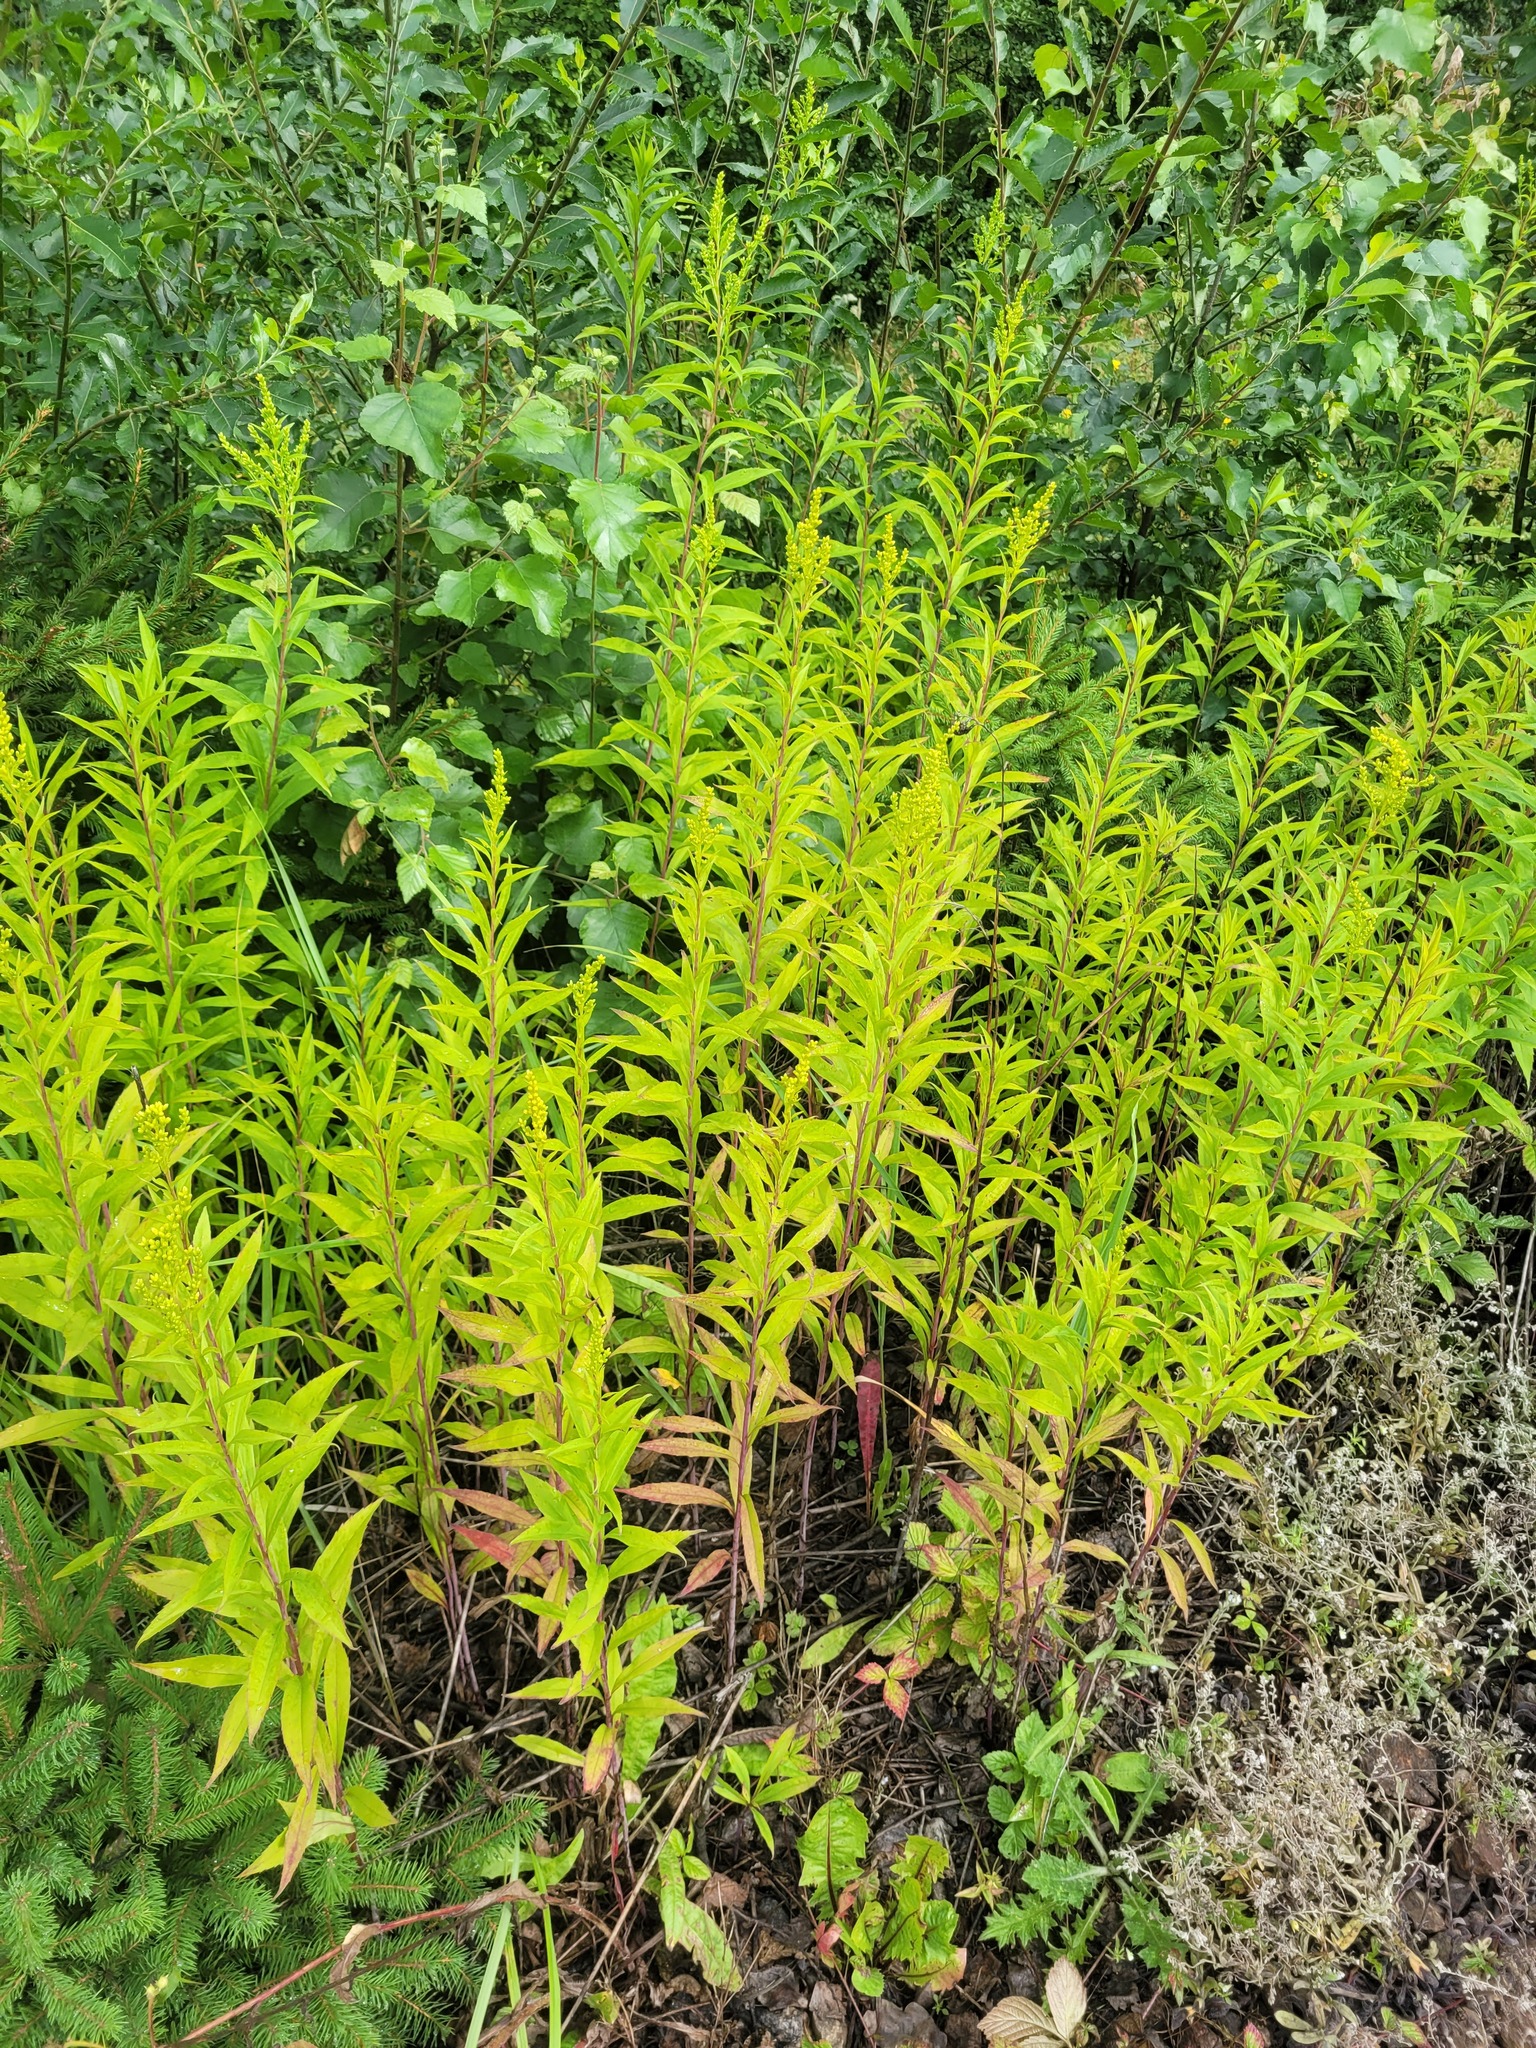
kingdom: Plantae
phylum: Tracheophyta
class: Magnoliopsida
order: Asterales
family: Asteraceae
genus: Solidago
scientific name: Solidago gigantea
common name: Giant goldenrod
